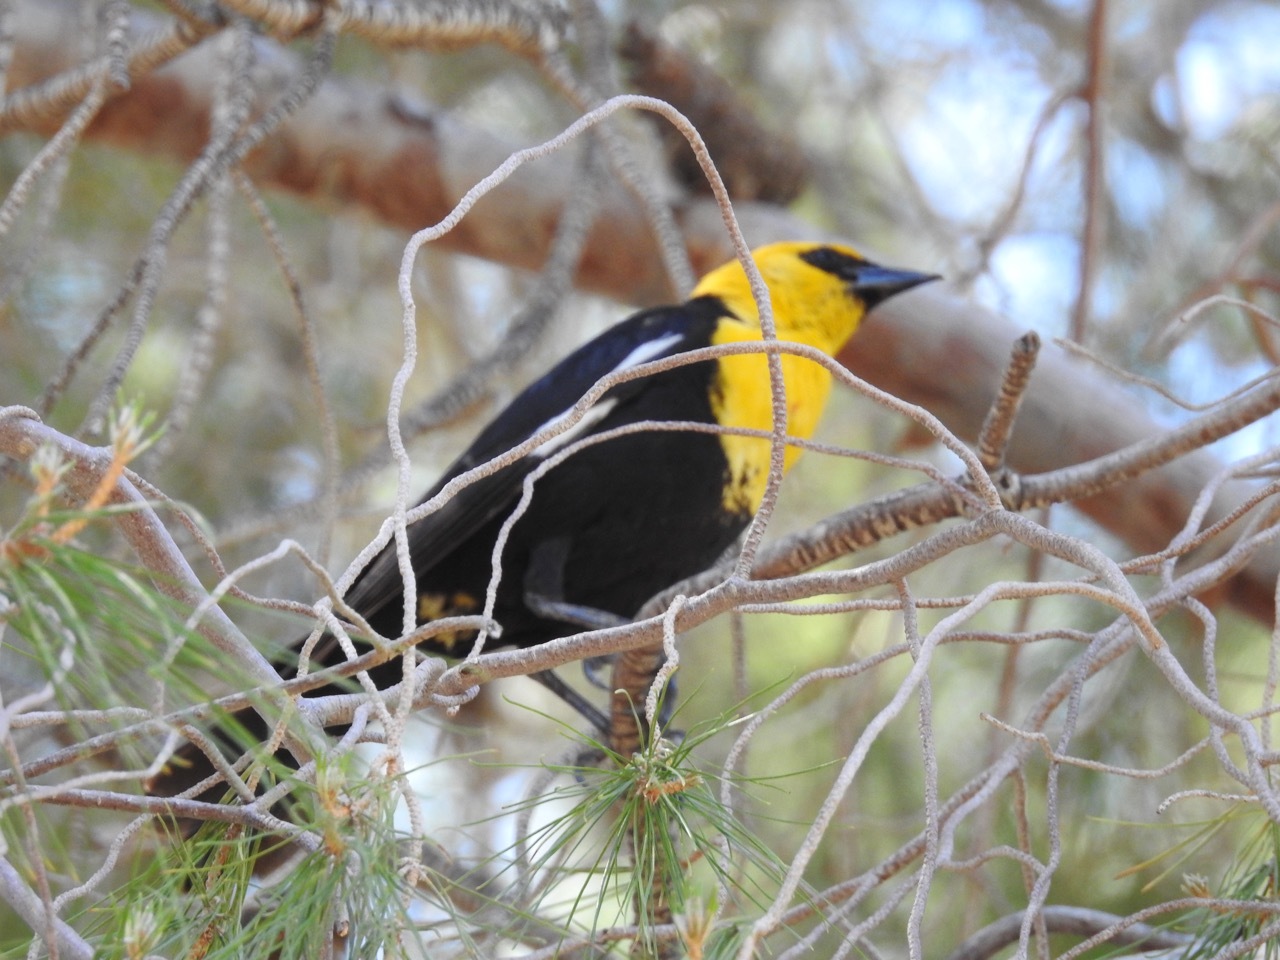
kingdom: Animalia
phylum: Chordata
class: Aves
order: Passeriformes
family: Icteridae
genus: Xanthocephalus
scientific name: Xanthocephalus xanthocephalus
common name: Yellow-headed blackbird
